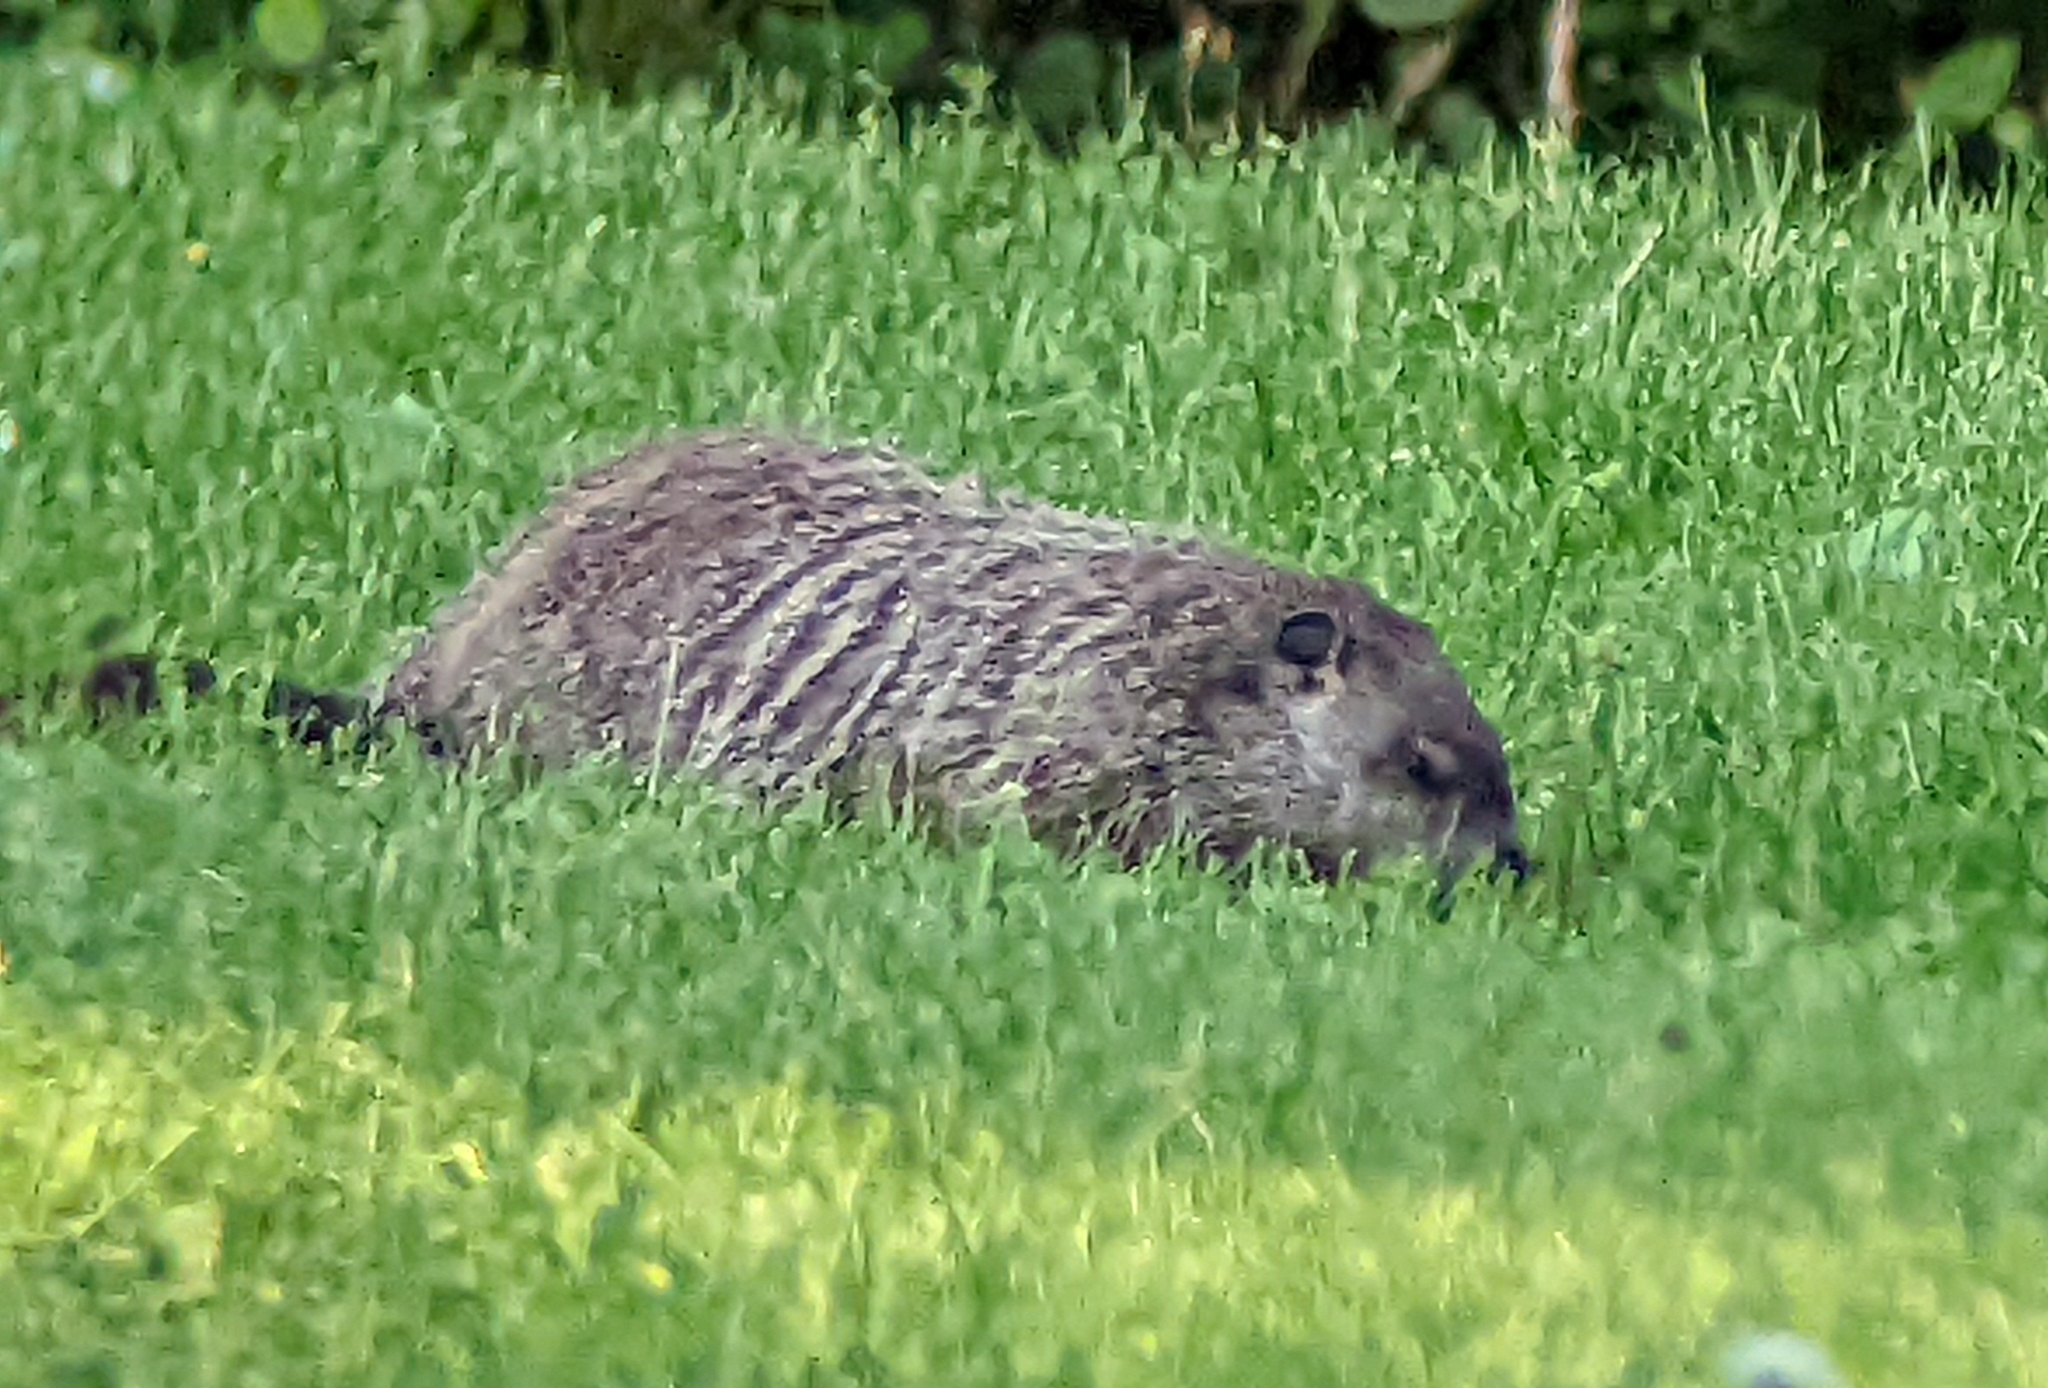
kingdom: Animalia
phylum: Chordata
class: Mammalia
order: Rodentia
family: Sciuridae
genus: Marmota
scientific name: Marmota monax
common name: Groundhog
